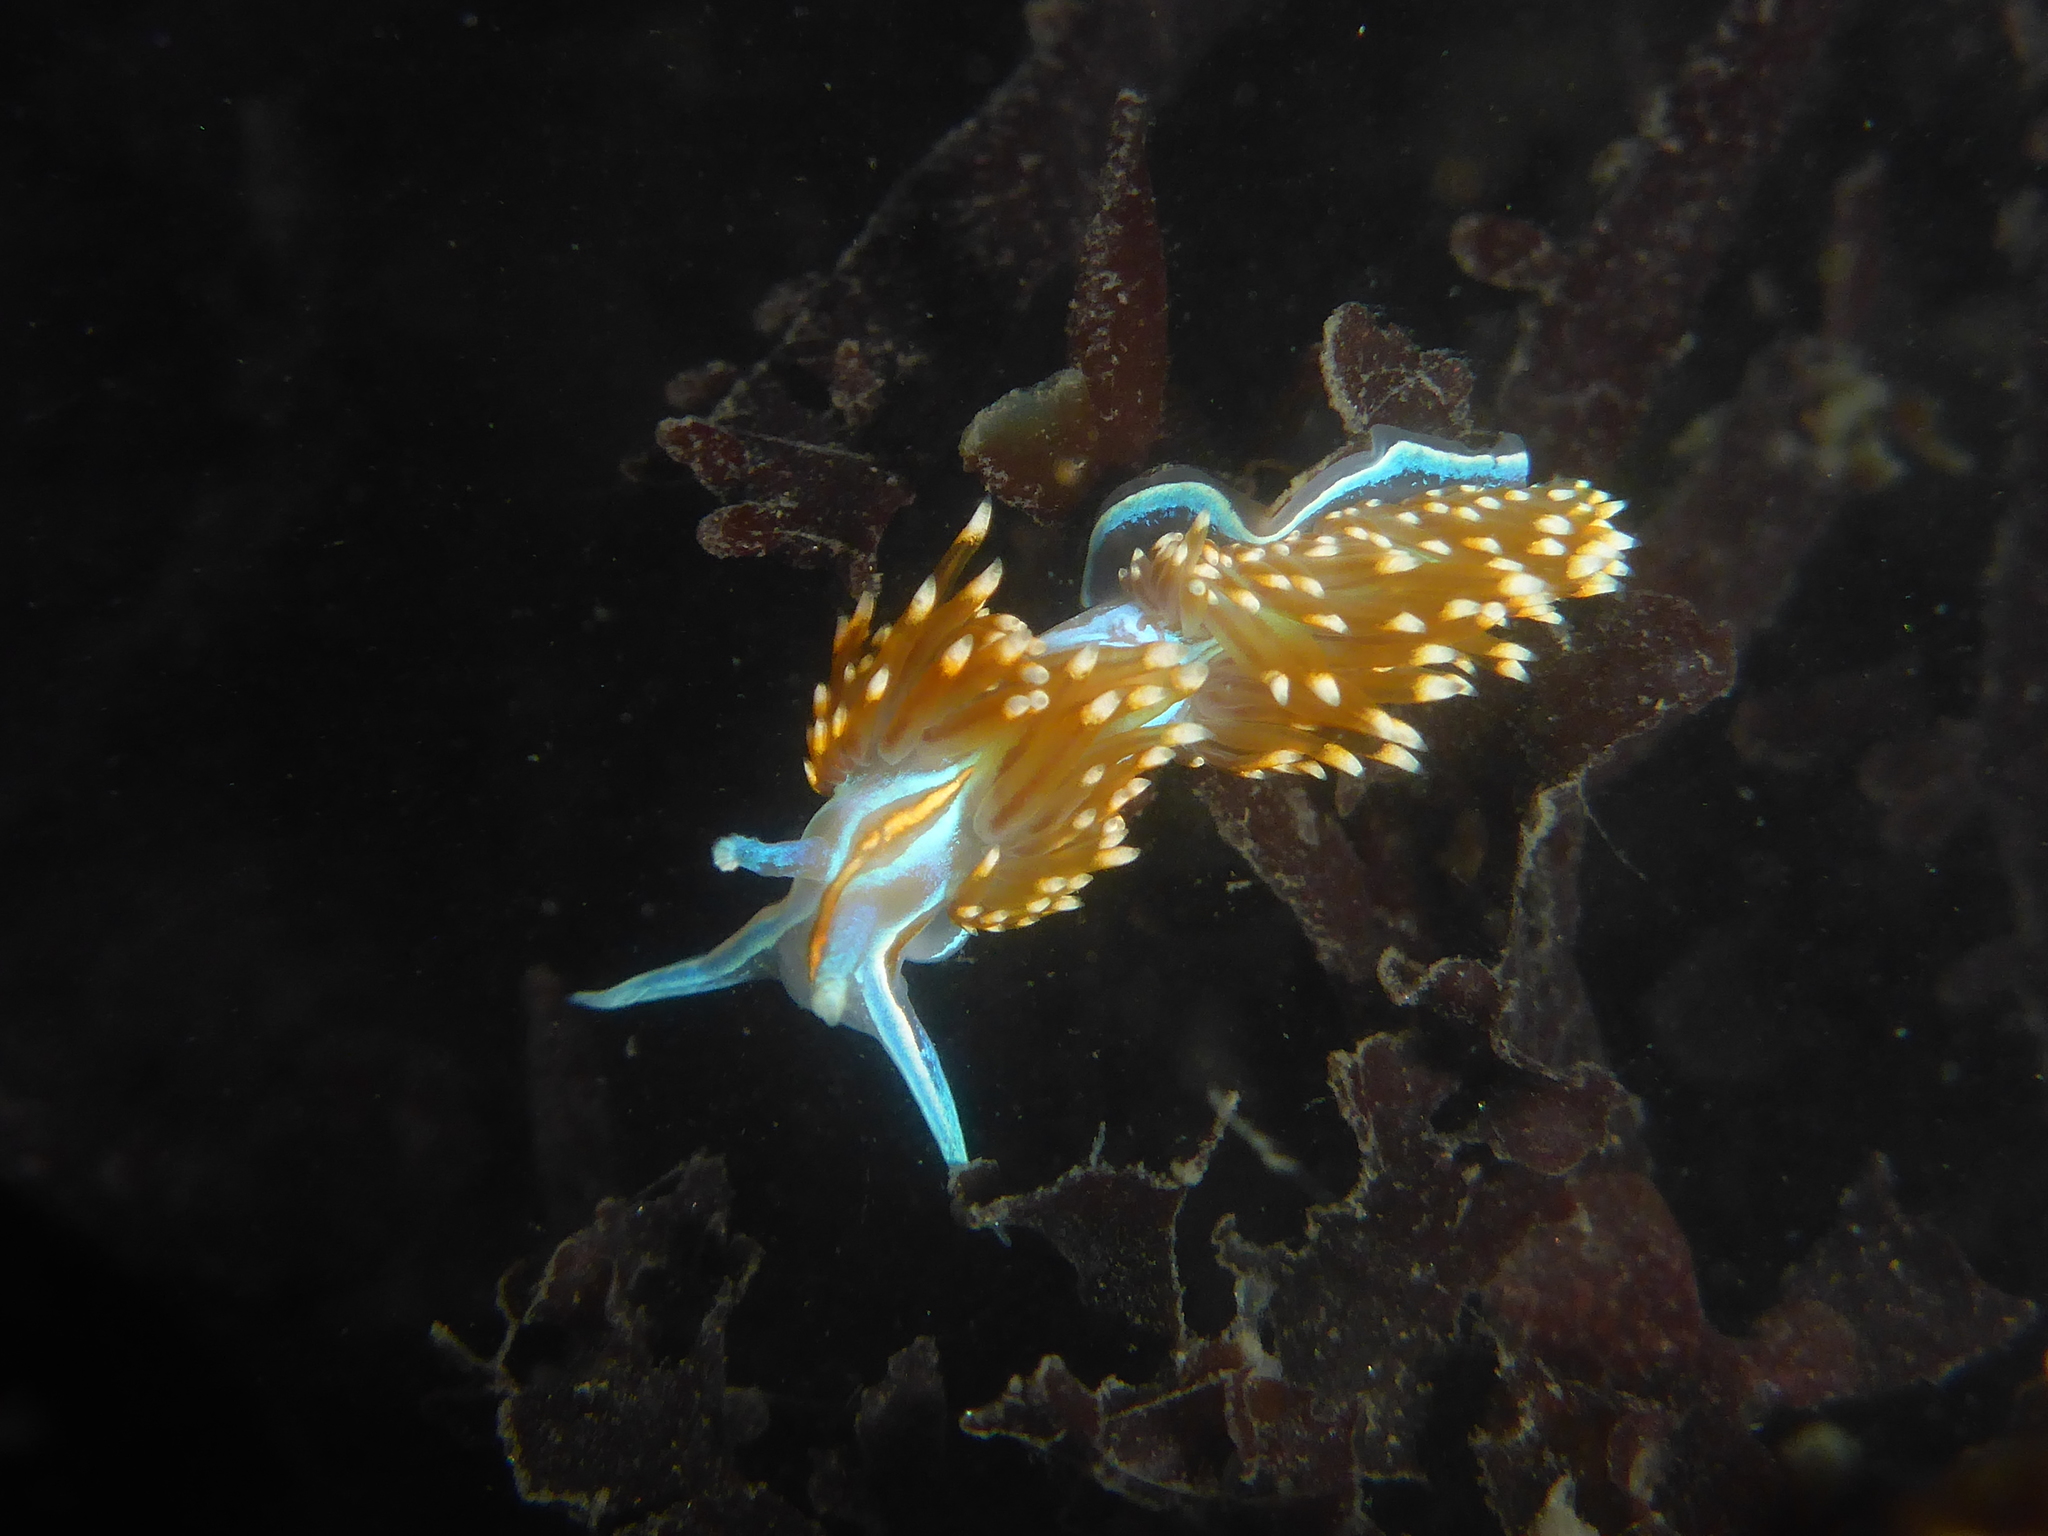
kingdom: Animalia
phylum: Mollusca
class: Gastropoda
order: Nudibranchia
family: Myrrhinidae
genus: Hermissenda
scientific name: Hermissenda opalescens
